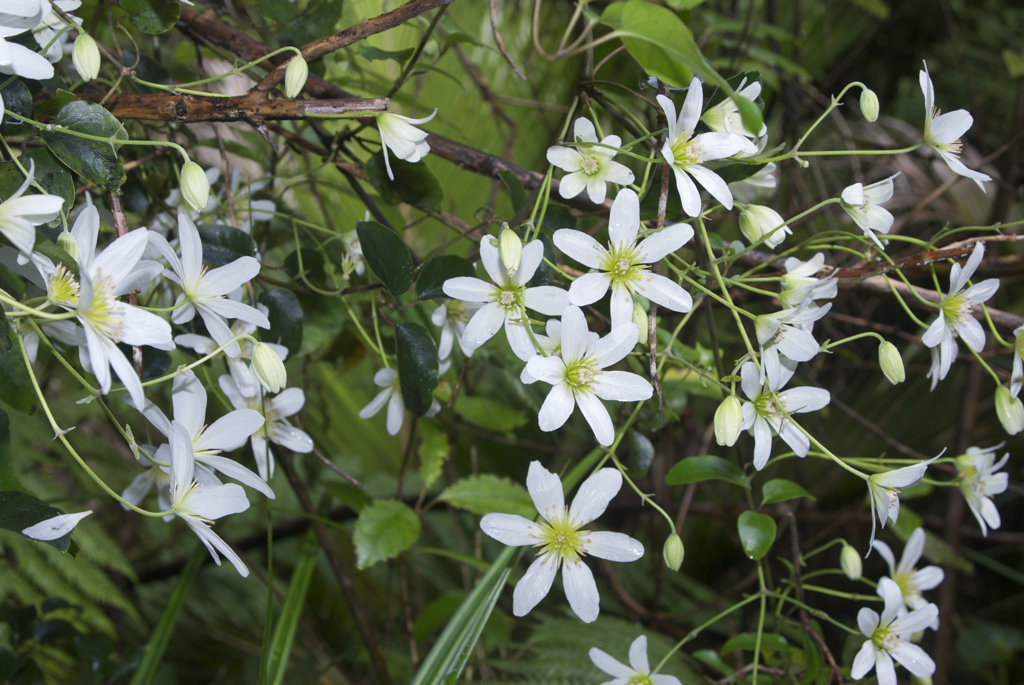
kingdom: Plantae
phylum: Tracheophyta
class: Magnoliopsida
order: Ranunculales
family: Ranunculaceae
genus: Clematis
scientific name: Clematis paniculata
